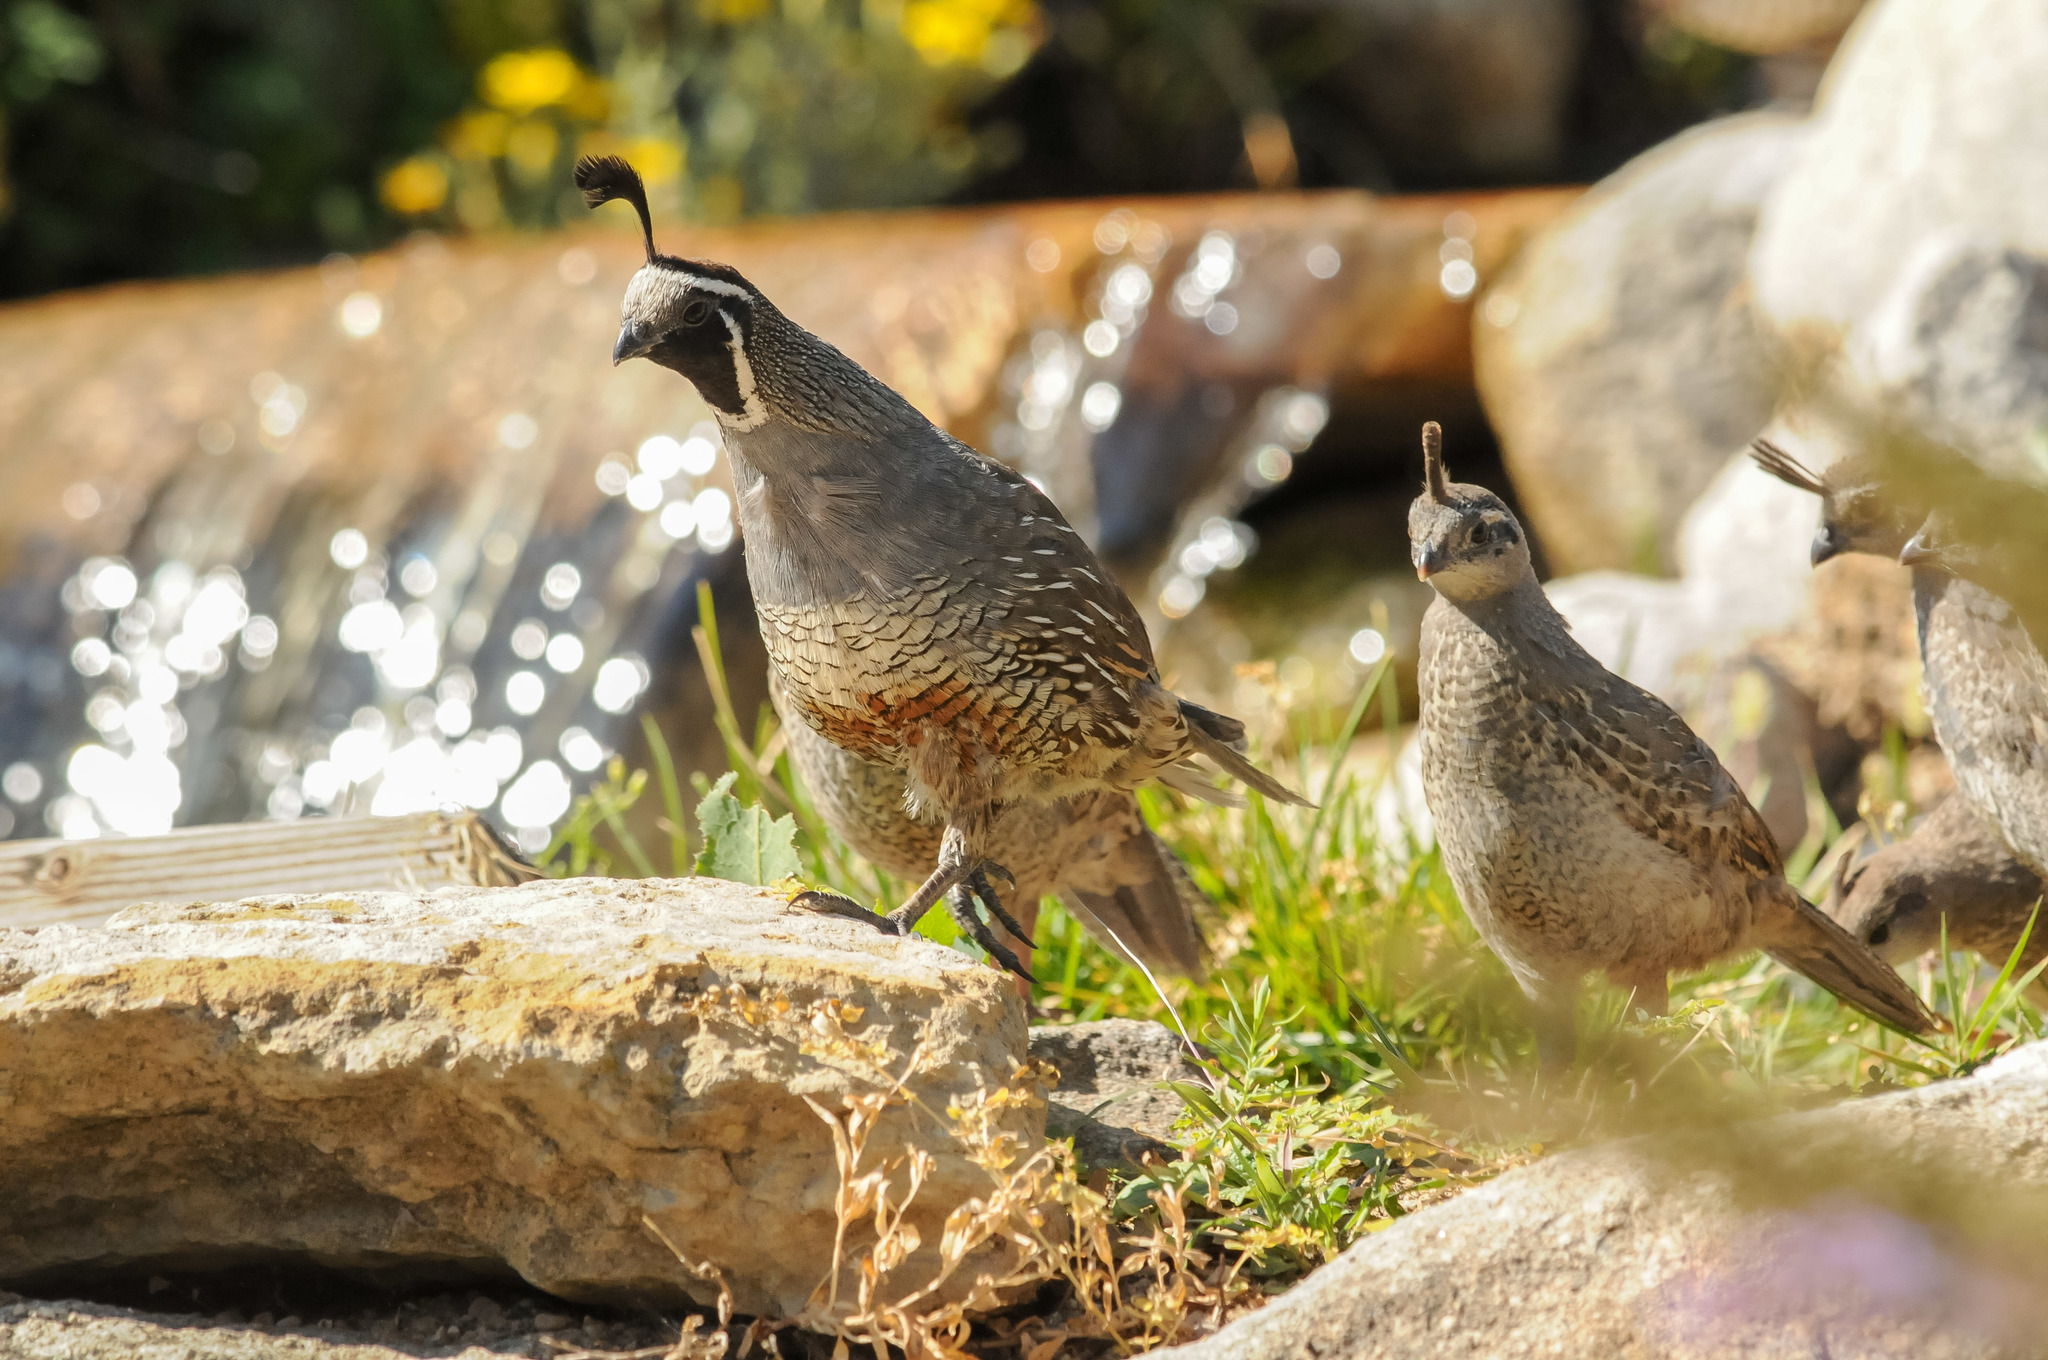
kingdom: Animalia
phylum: Chordata
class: Aves
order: Galliformes
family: Odontophoridae
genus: Callipepla
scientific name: Callipepla californica
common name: California quail
